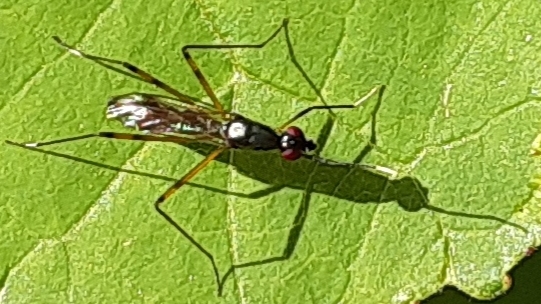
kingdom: Animalia
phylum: Arthropoda
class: Insecta
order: Diptera
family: Micropezidae
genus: Rainieria
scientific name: Rainieria antennaepes
